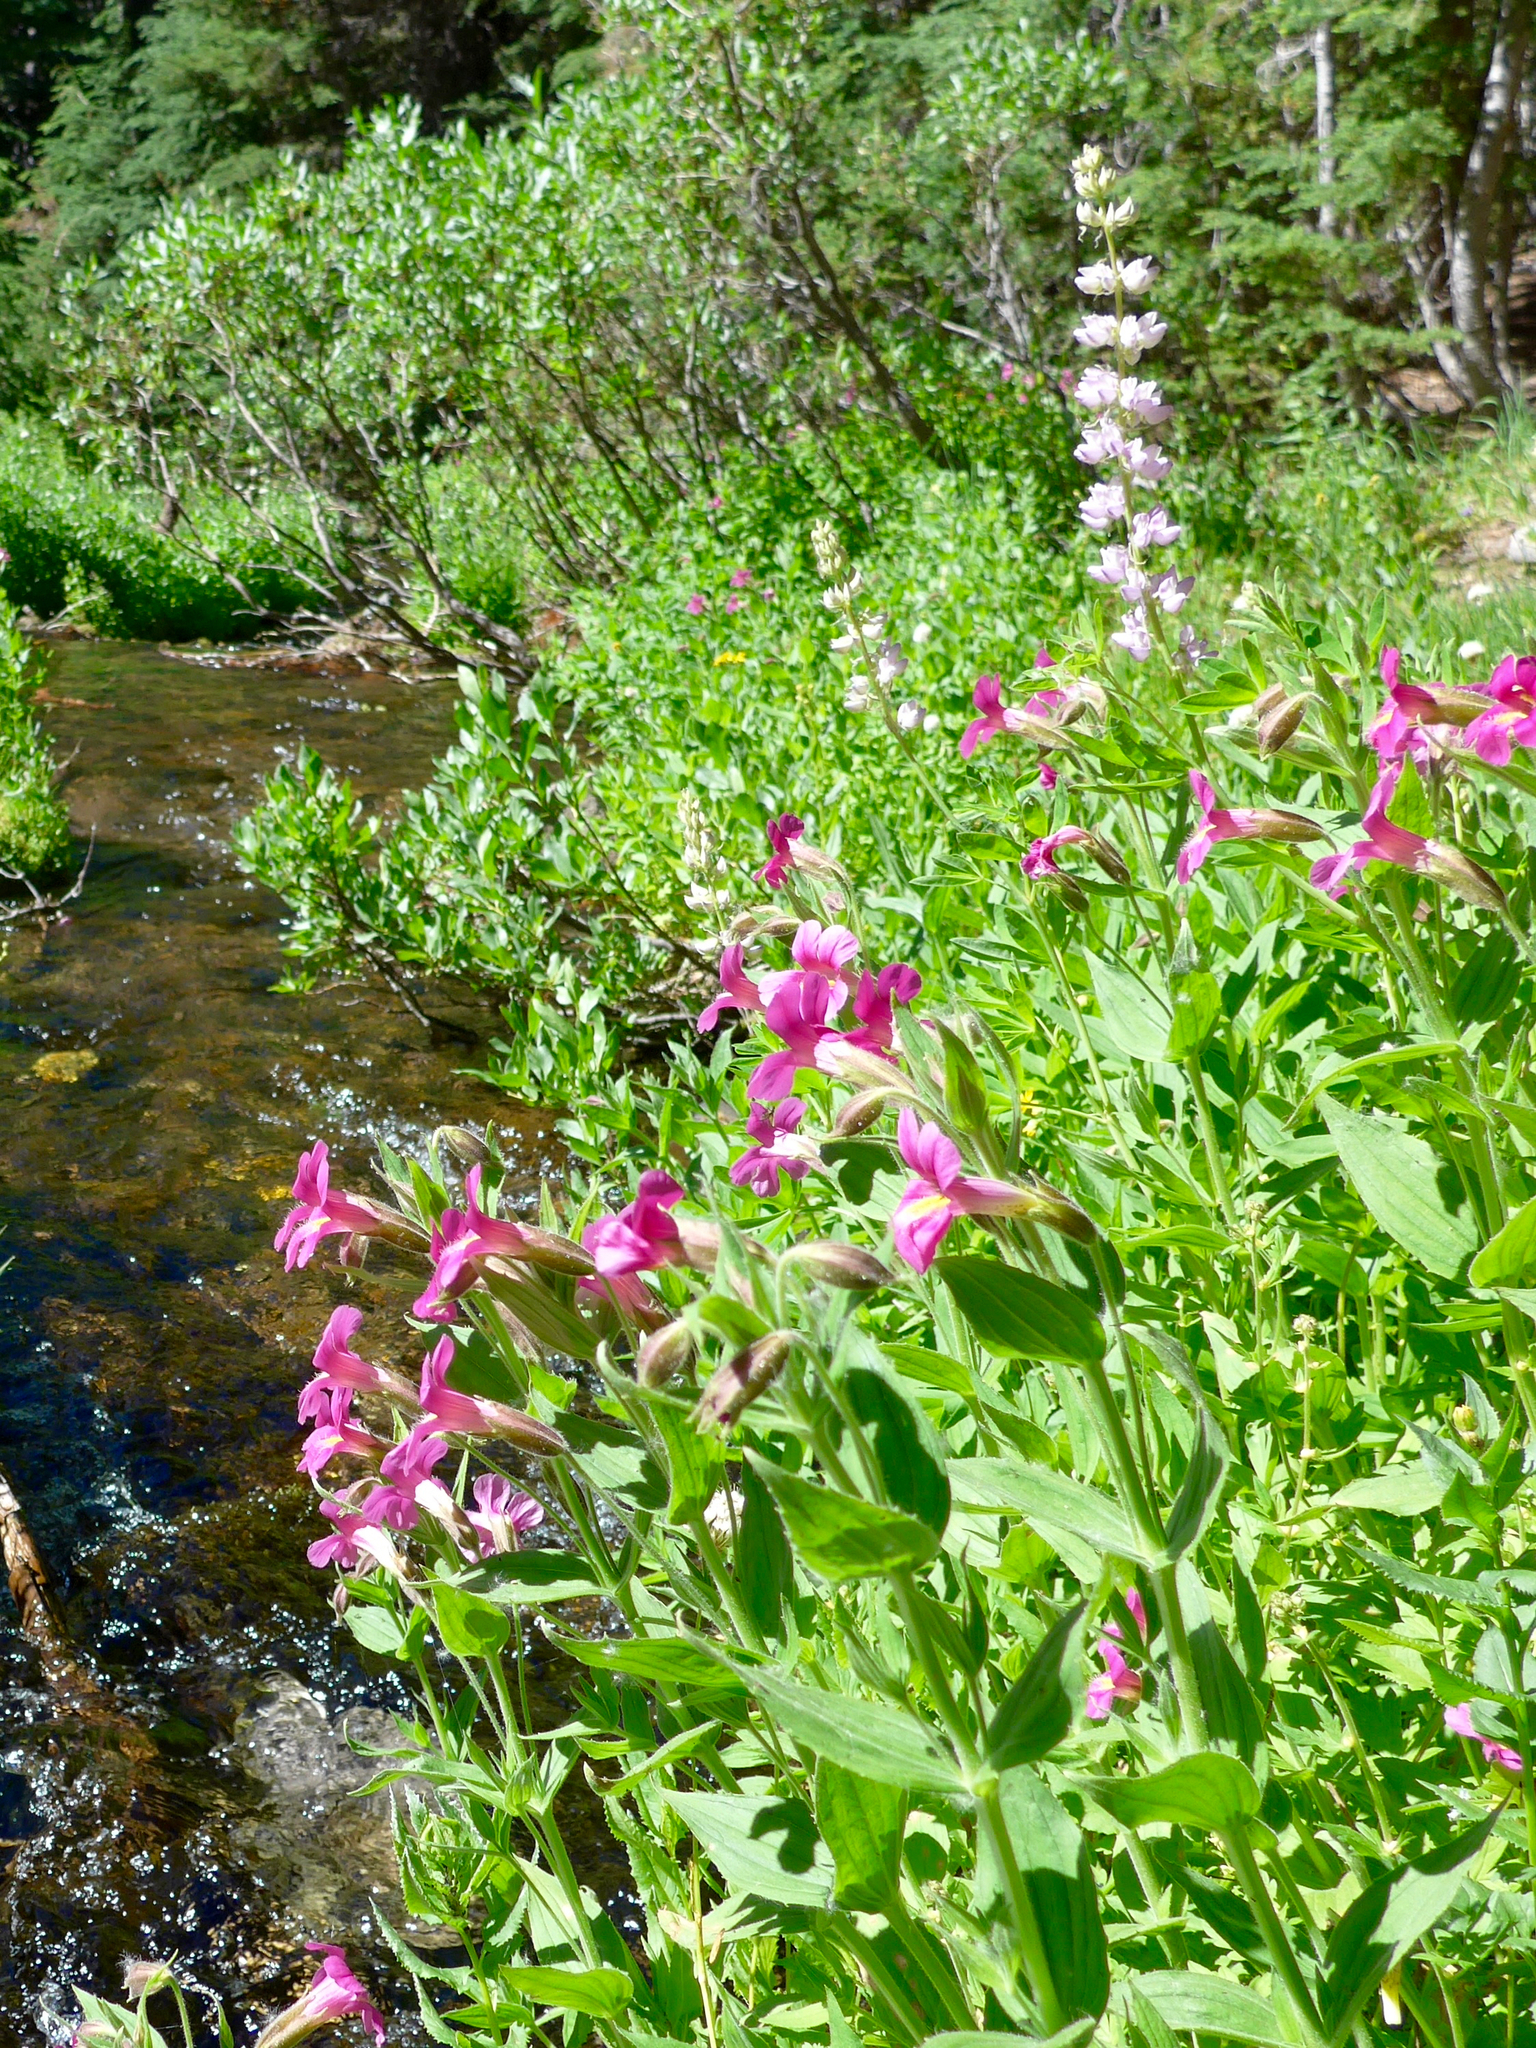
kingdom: Plantae
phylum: Tracheophyta
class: Magnoliopsida
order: Lamiales
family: Phrymaceae
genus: Erythranthe
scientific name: Erythranthe lewisii
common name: Lewis's monkey-flower
